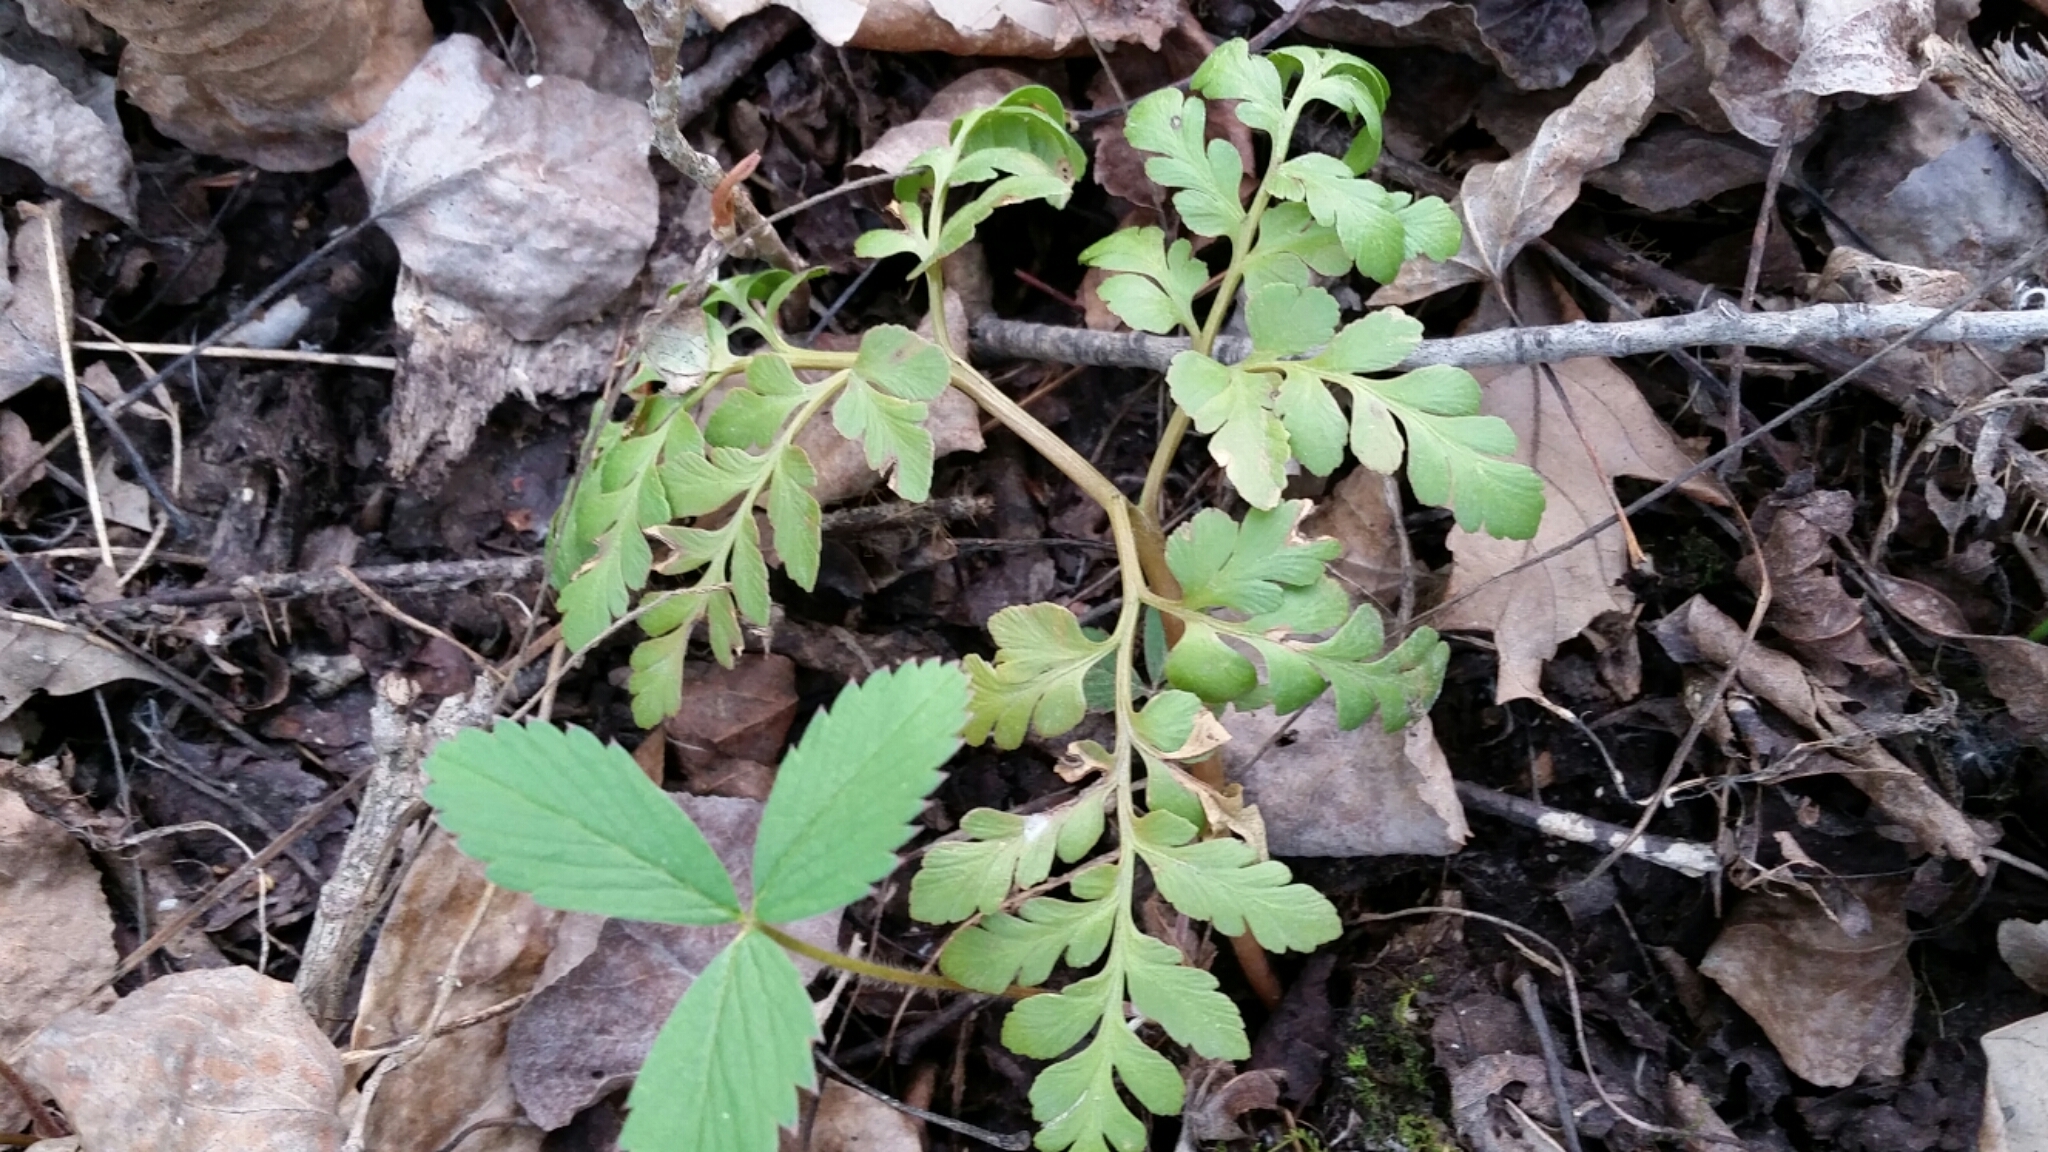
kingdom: Plantae
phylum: Tracheophyta
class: Polypodiopsida
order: Ophioglossales
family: Ophioglossaceae
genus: Sceptridium
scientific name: Sceptridium multifidum
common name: Leathery grape fern
